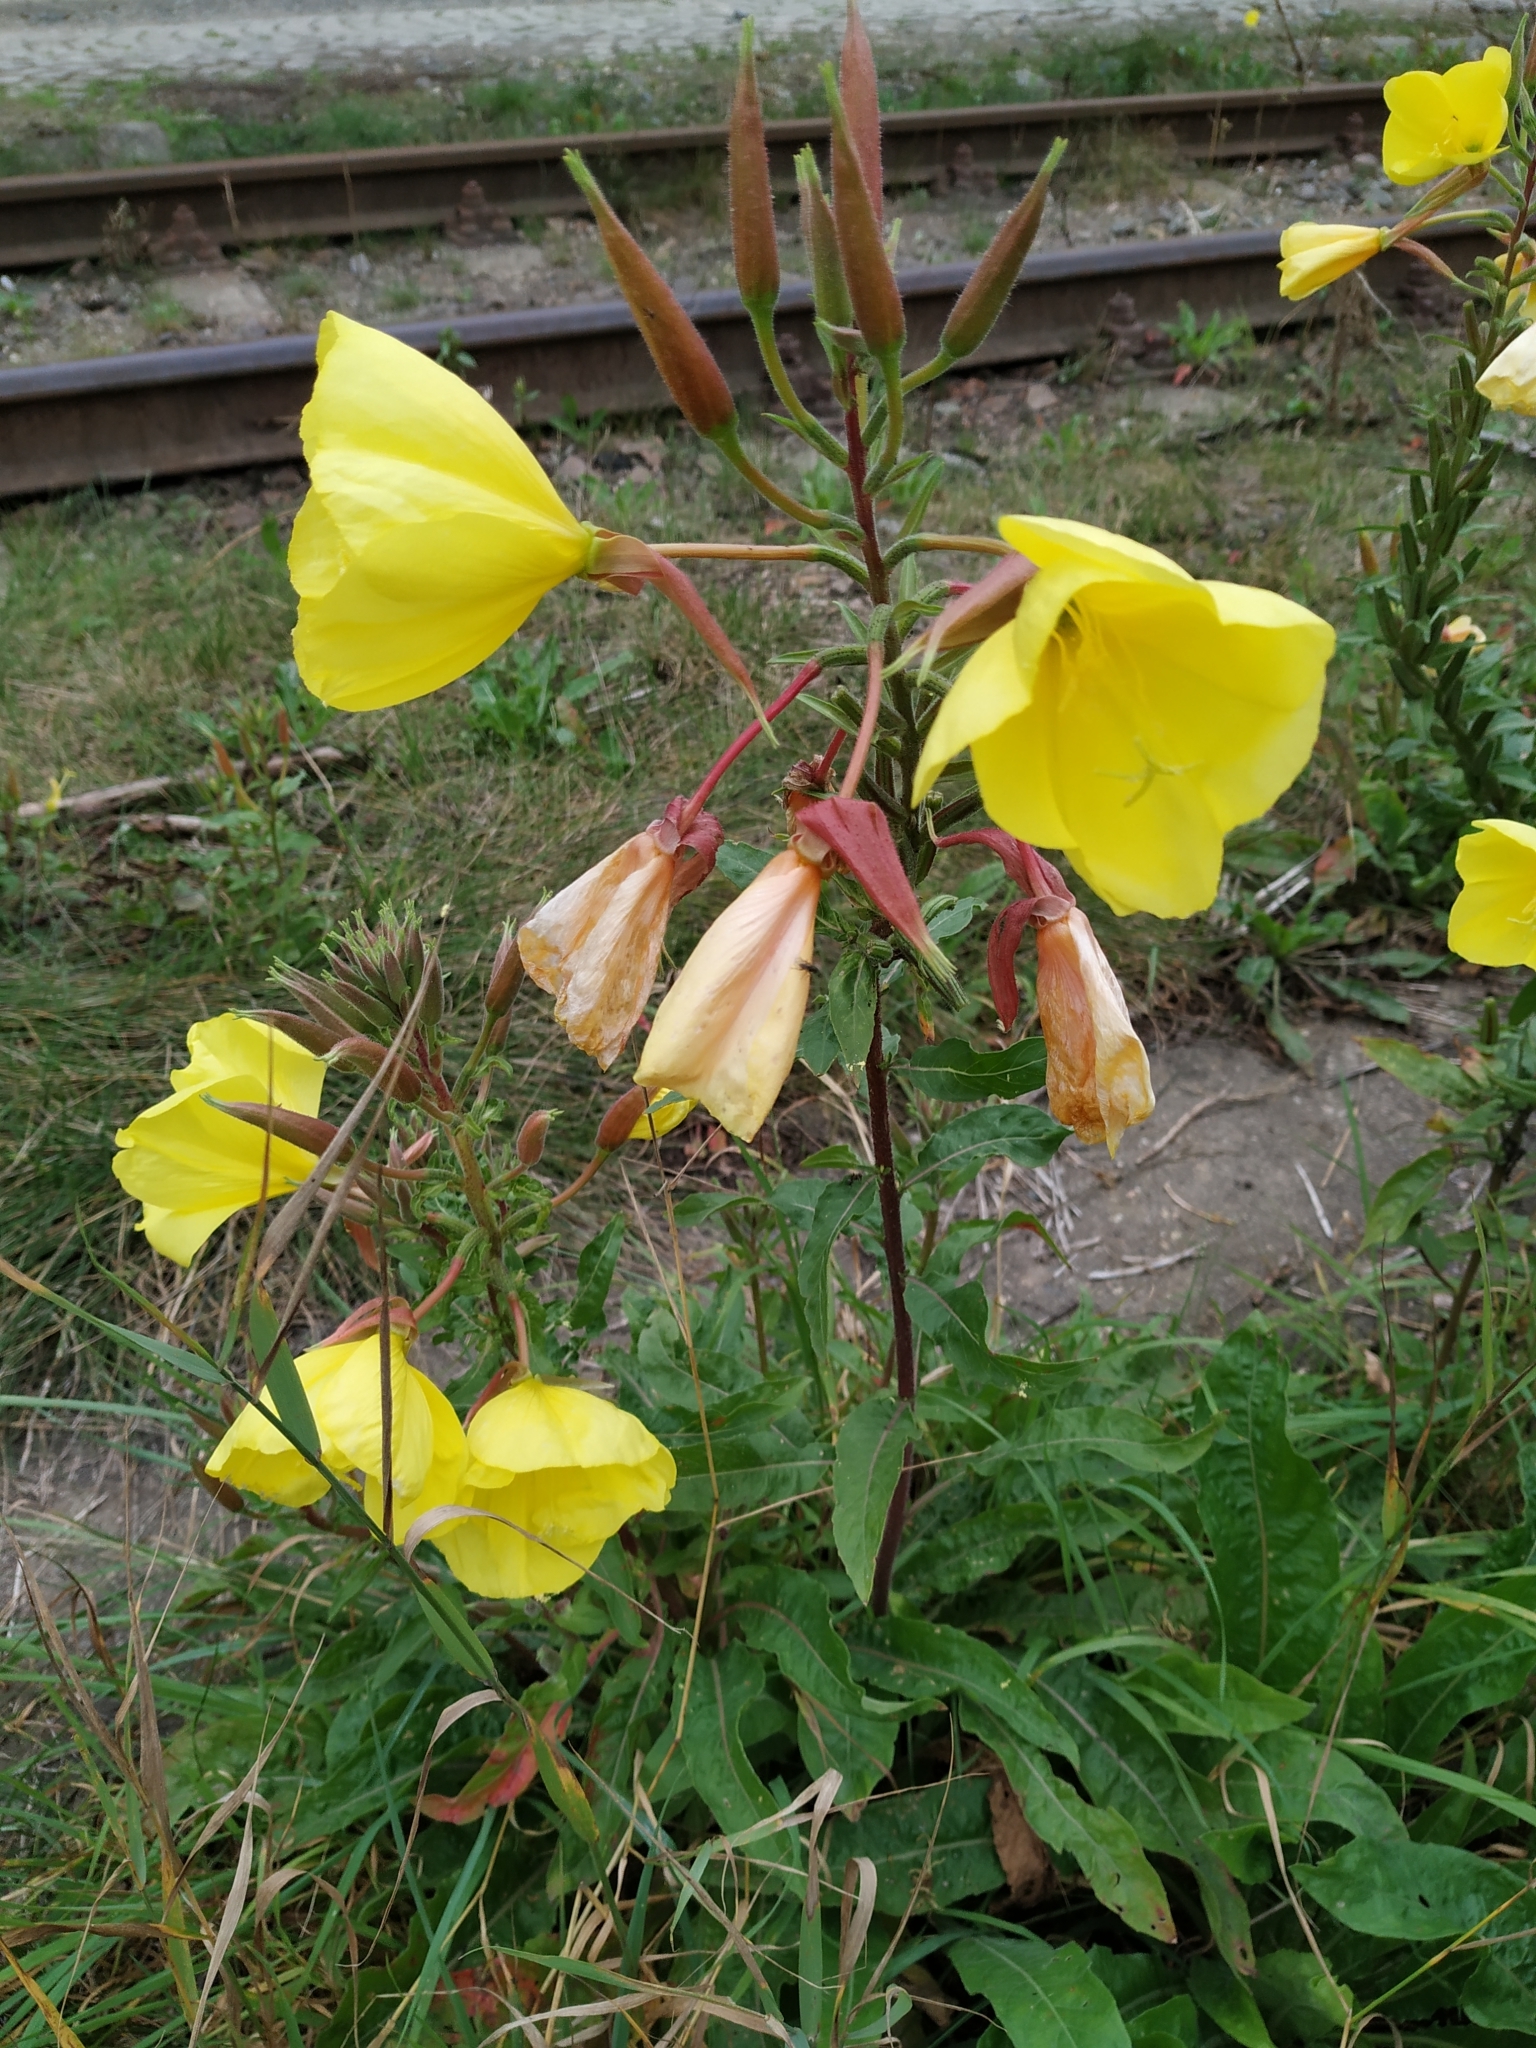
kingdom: Plantae
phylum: Tracheophyta
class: Magnoliopsida
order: Myrtales
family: Onagraceae
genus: Oenothera
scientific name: Oenothera glazioviana
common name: Large-flowered evening-primrose
